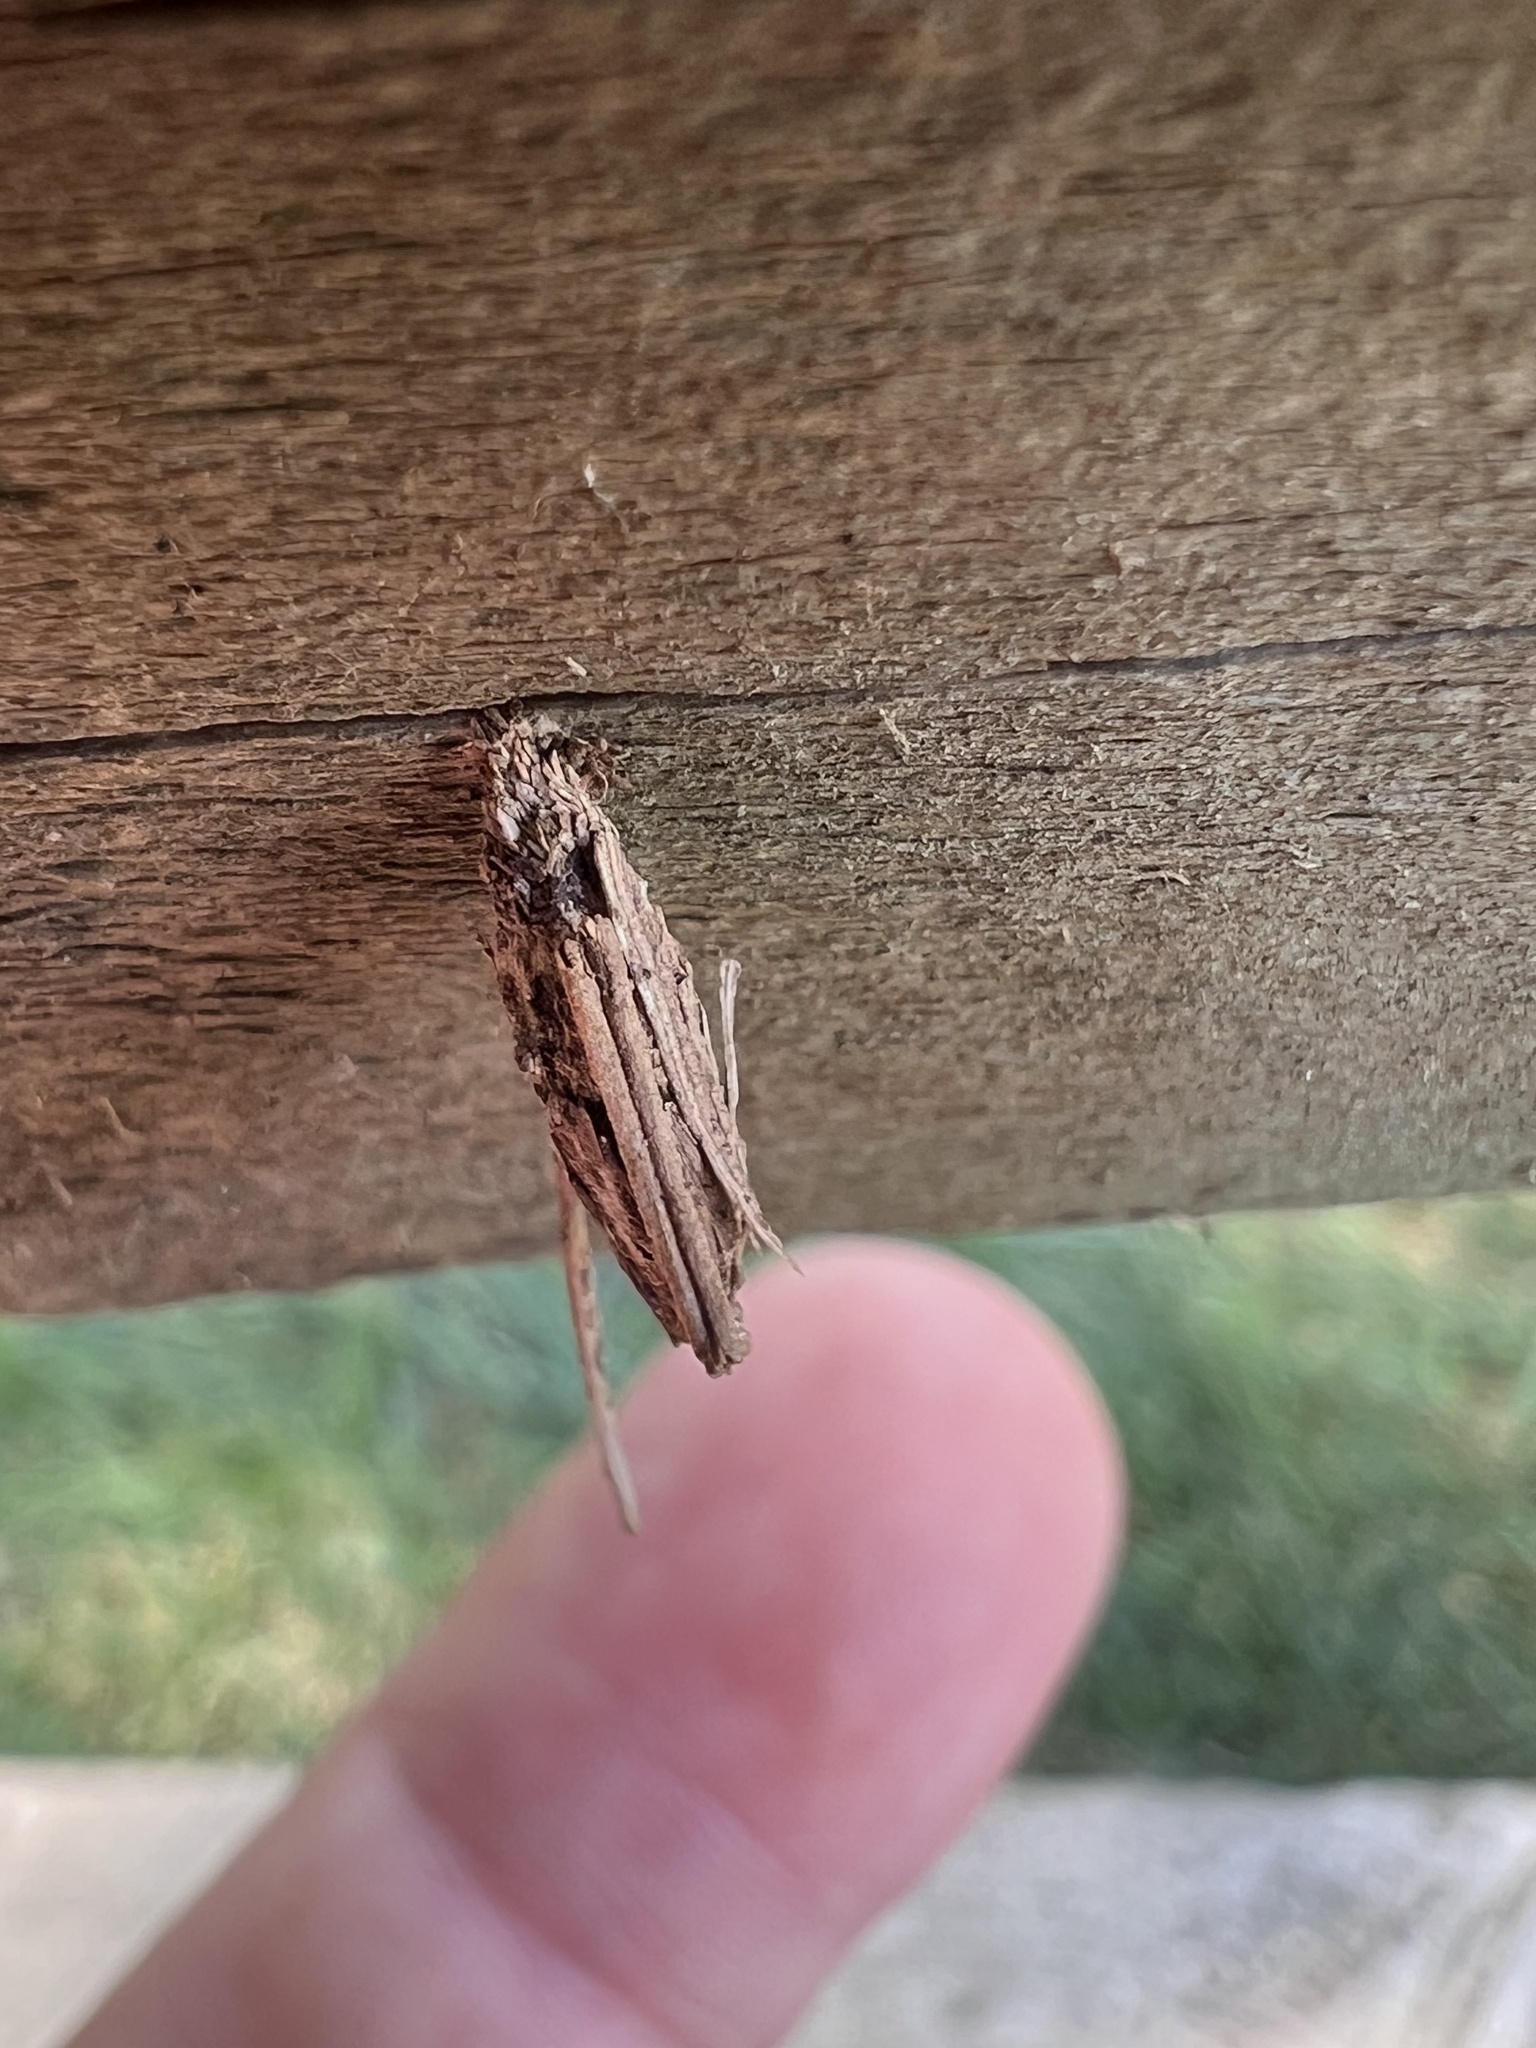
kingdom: Animalia
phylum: Arthropoda
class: Insecta
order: Lepidoptera
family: Psychidae
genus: Psyche
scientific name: Psyche casta
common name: Common sweep
